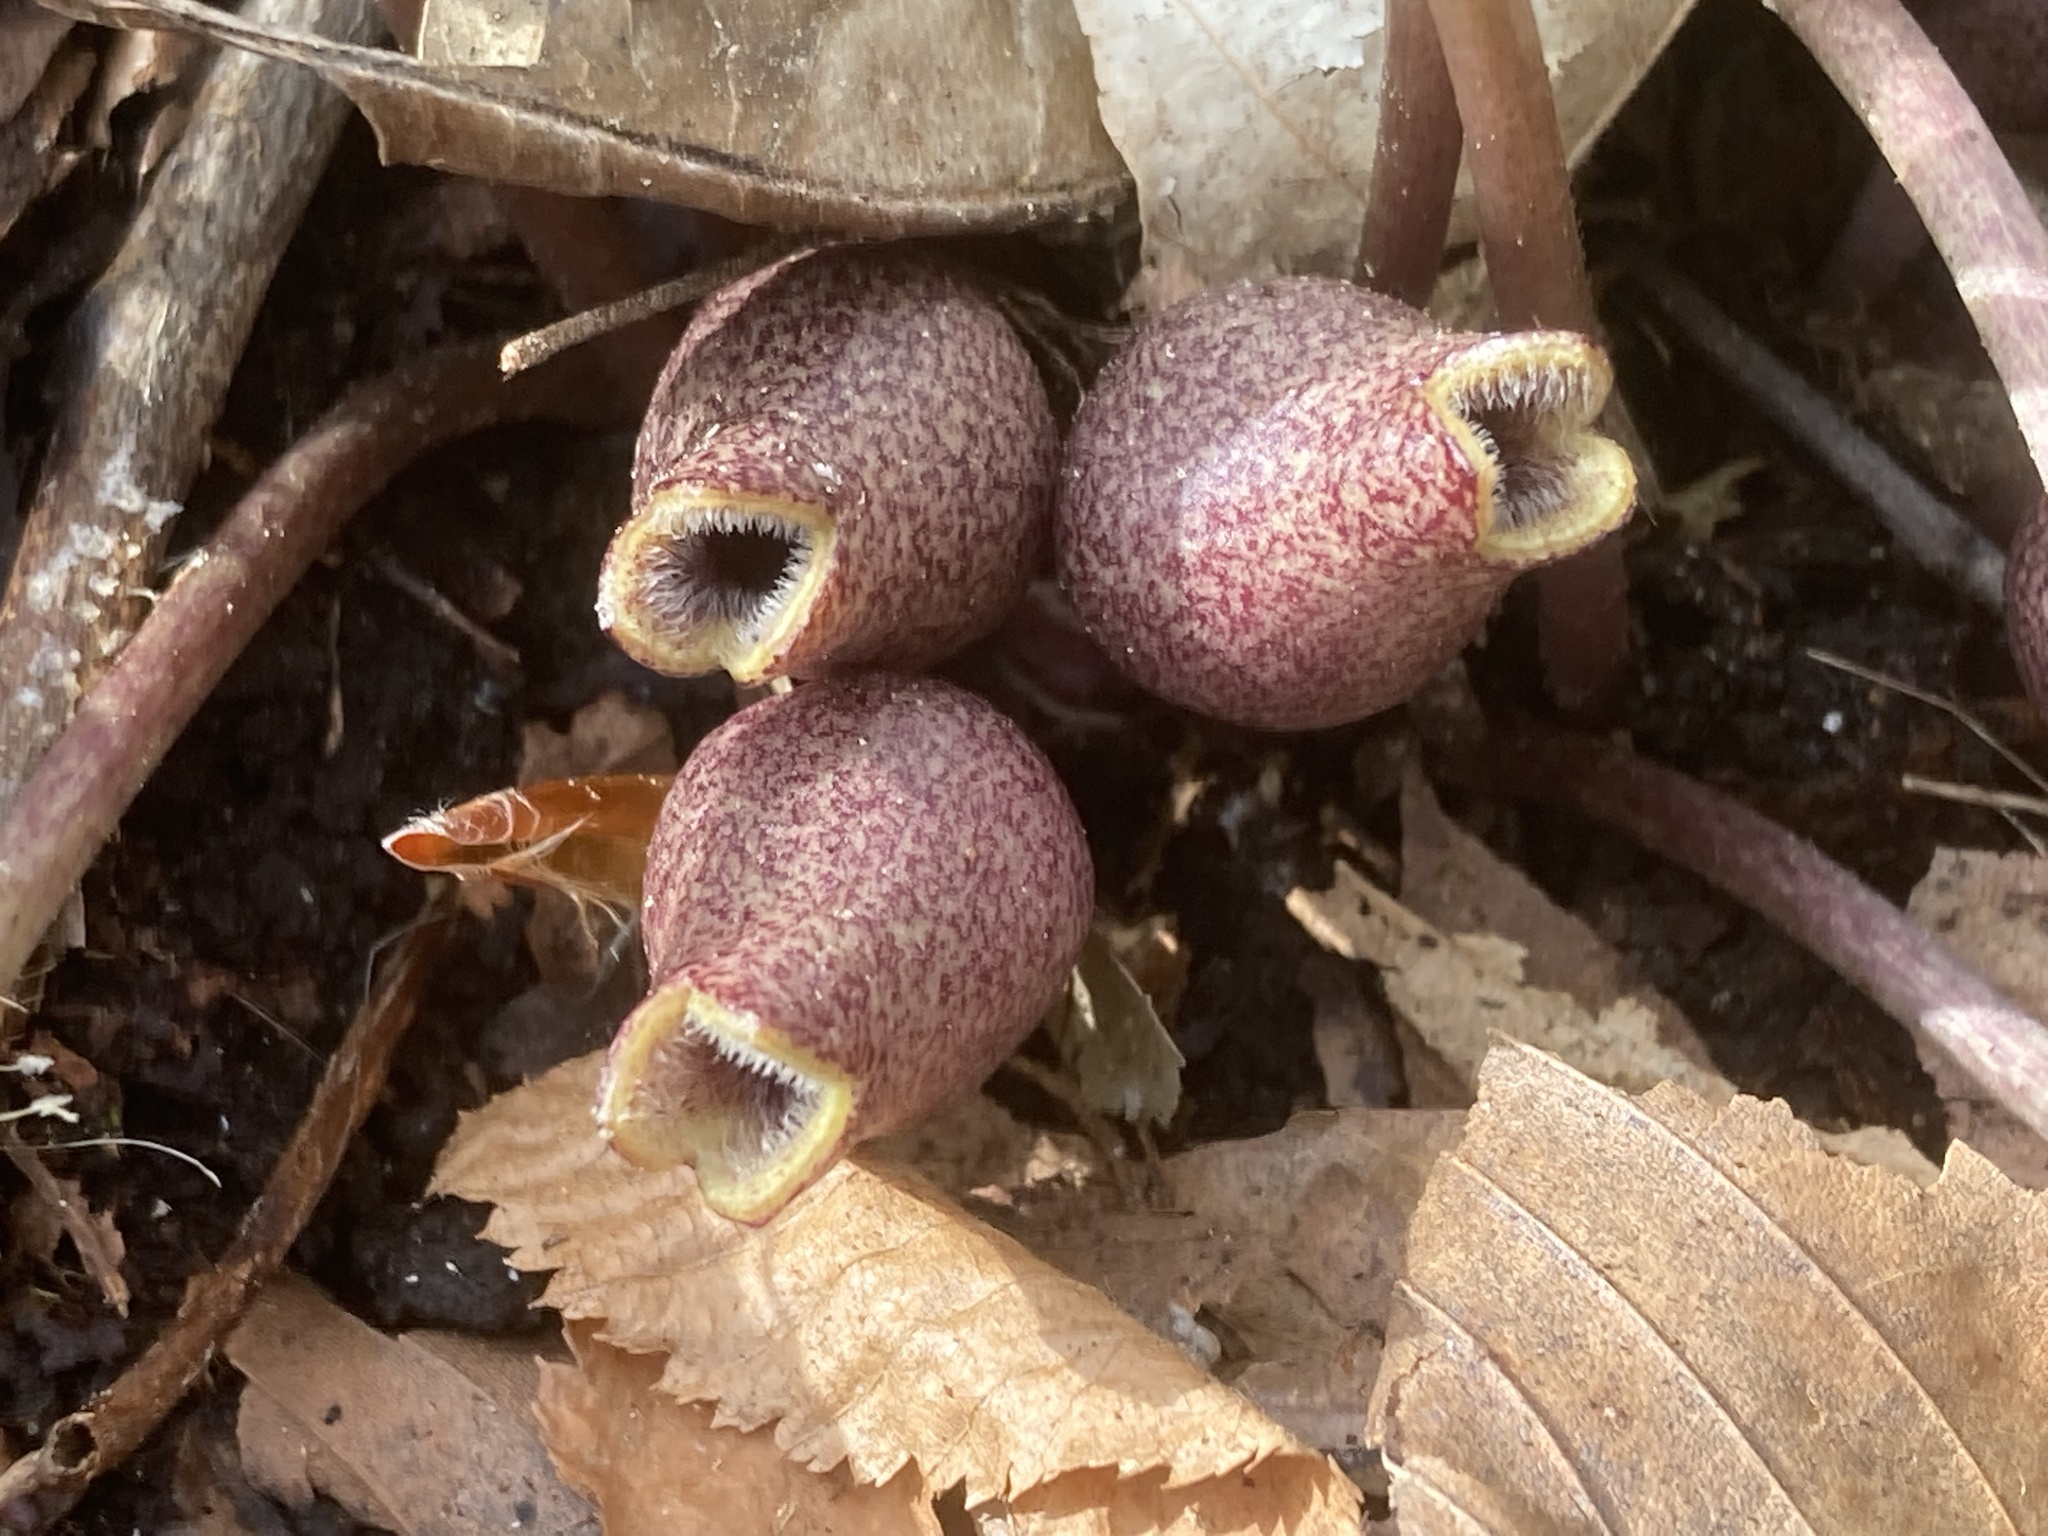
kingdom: Plantae
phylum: Tracheophyta
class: Magnoliopsida
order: Piperales
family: Aristolochiaceae
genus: Hexastylis
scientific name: Hexastylis arifolia
